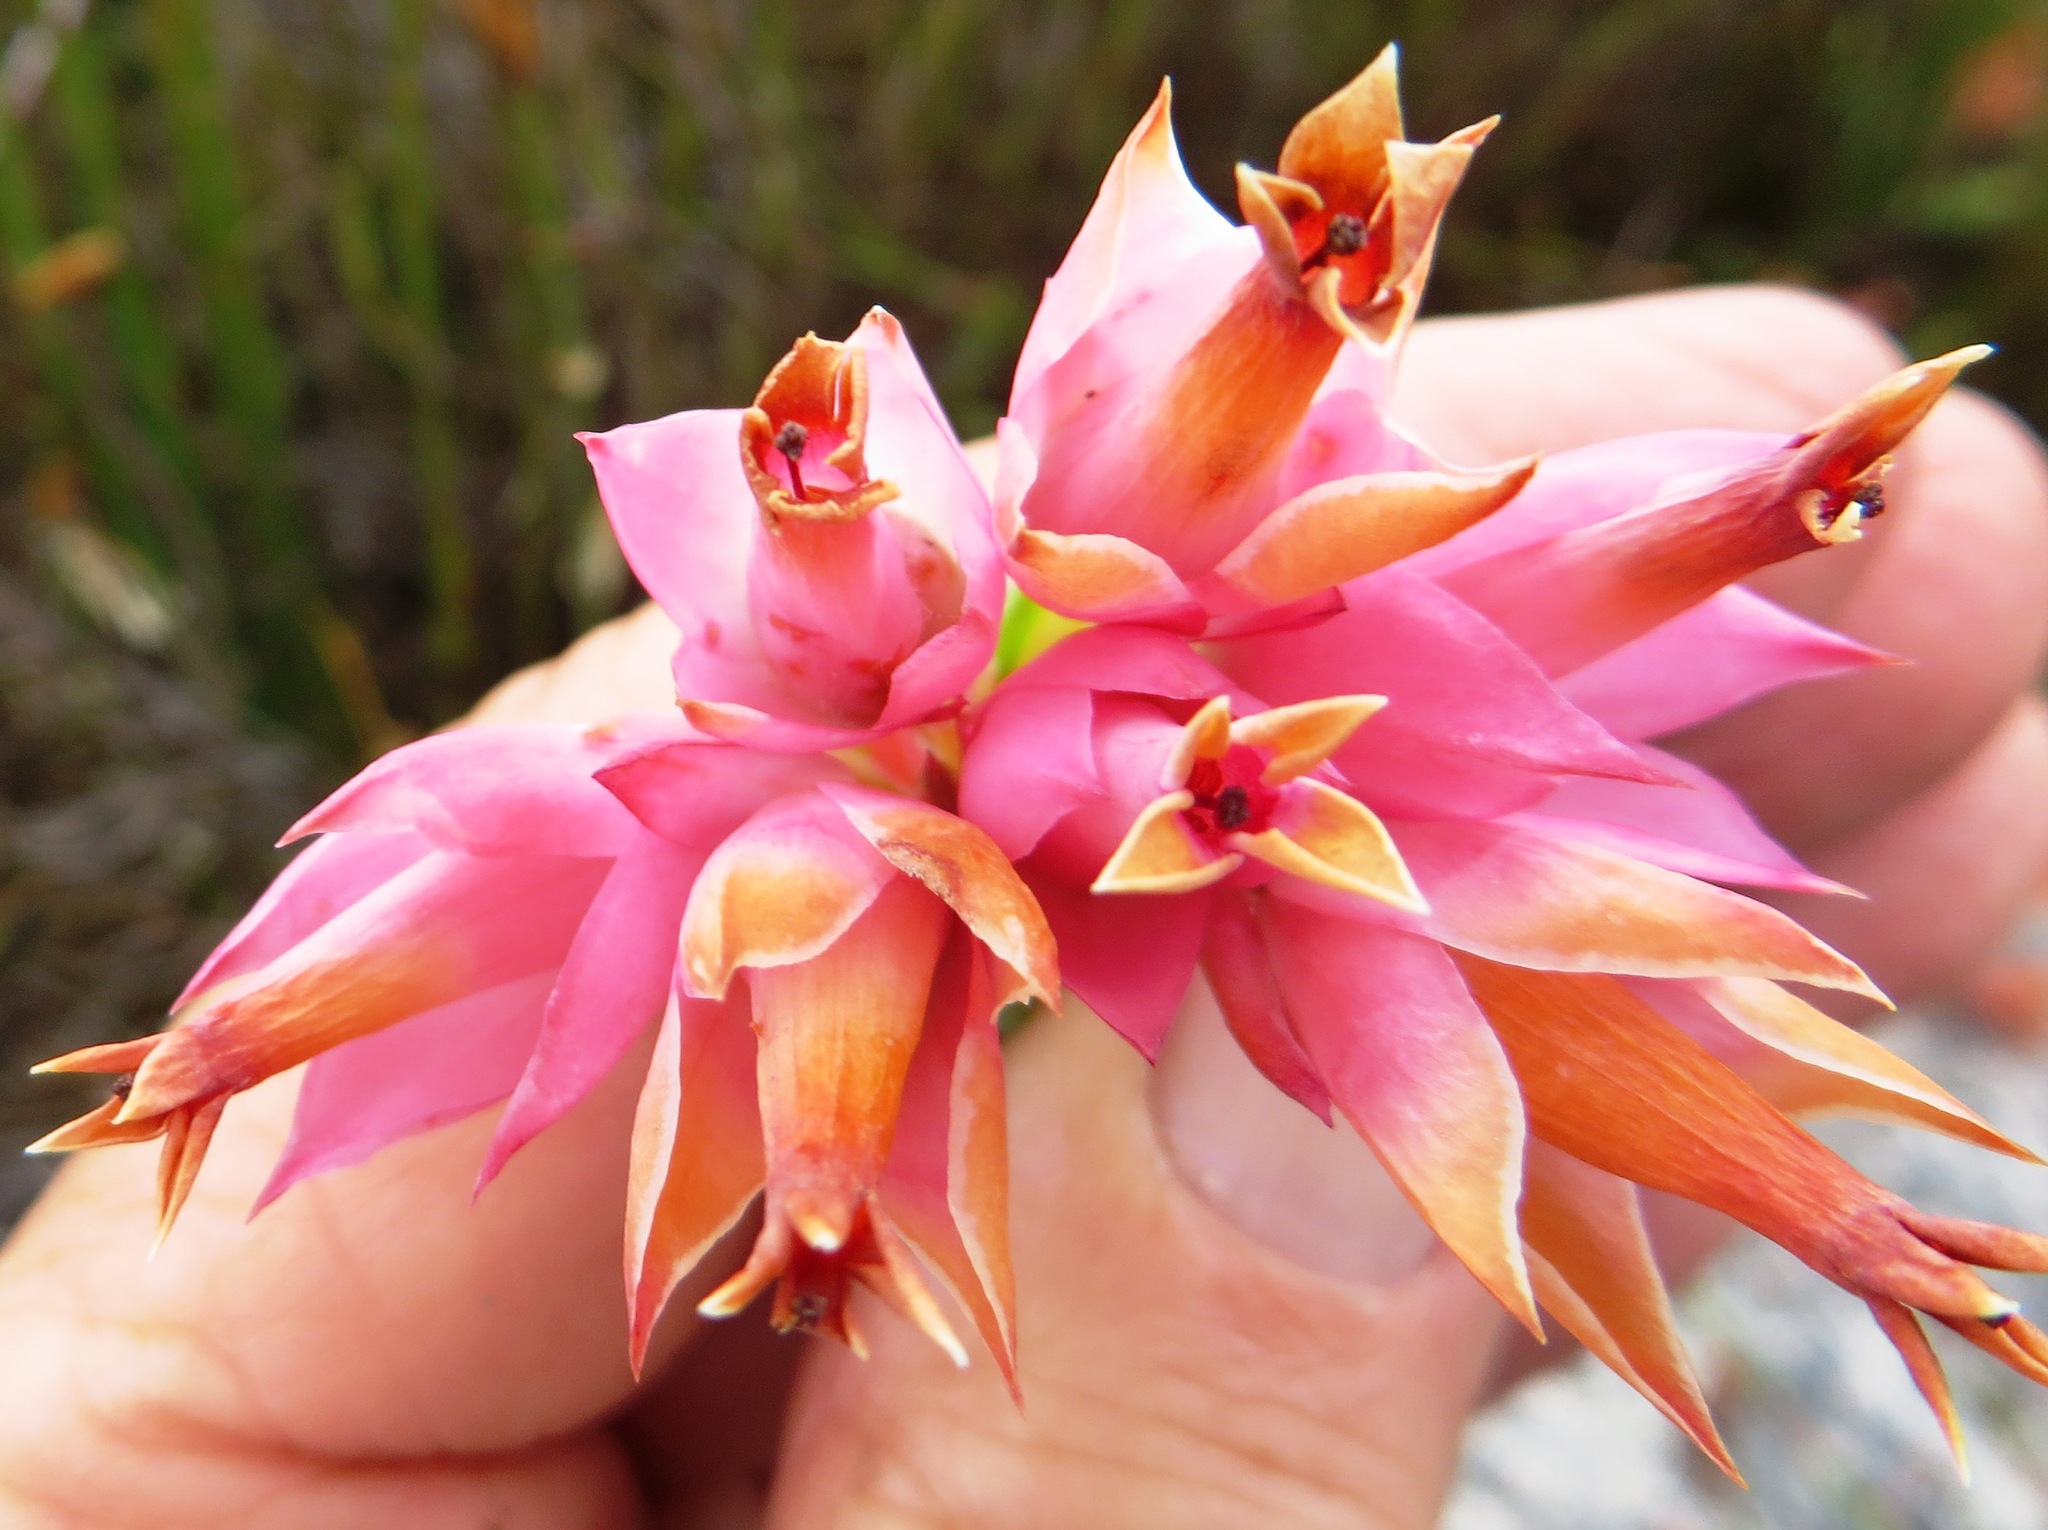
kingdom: Plantae
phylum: Tracheophyta
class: Magnoliopsida
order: Ericales
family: Ericaceae
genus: Erica
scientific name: Erica alfredii
